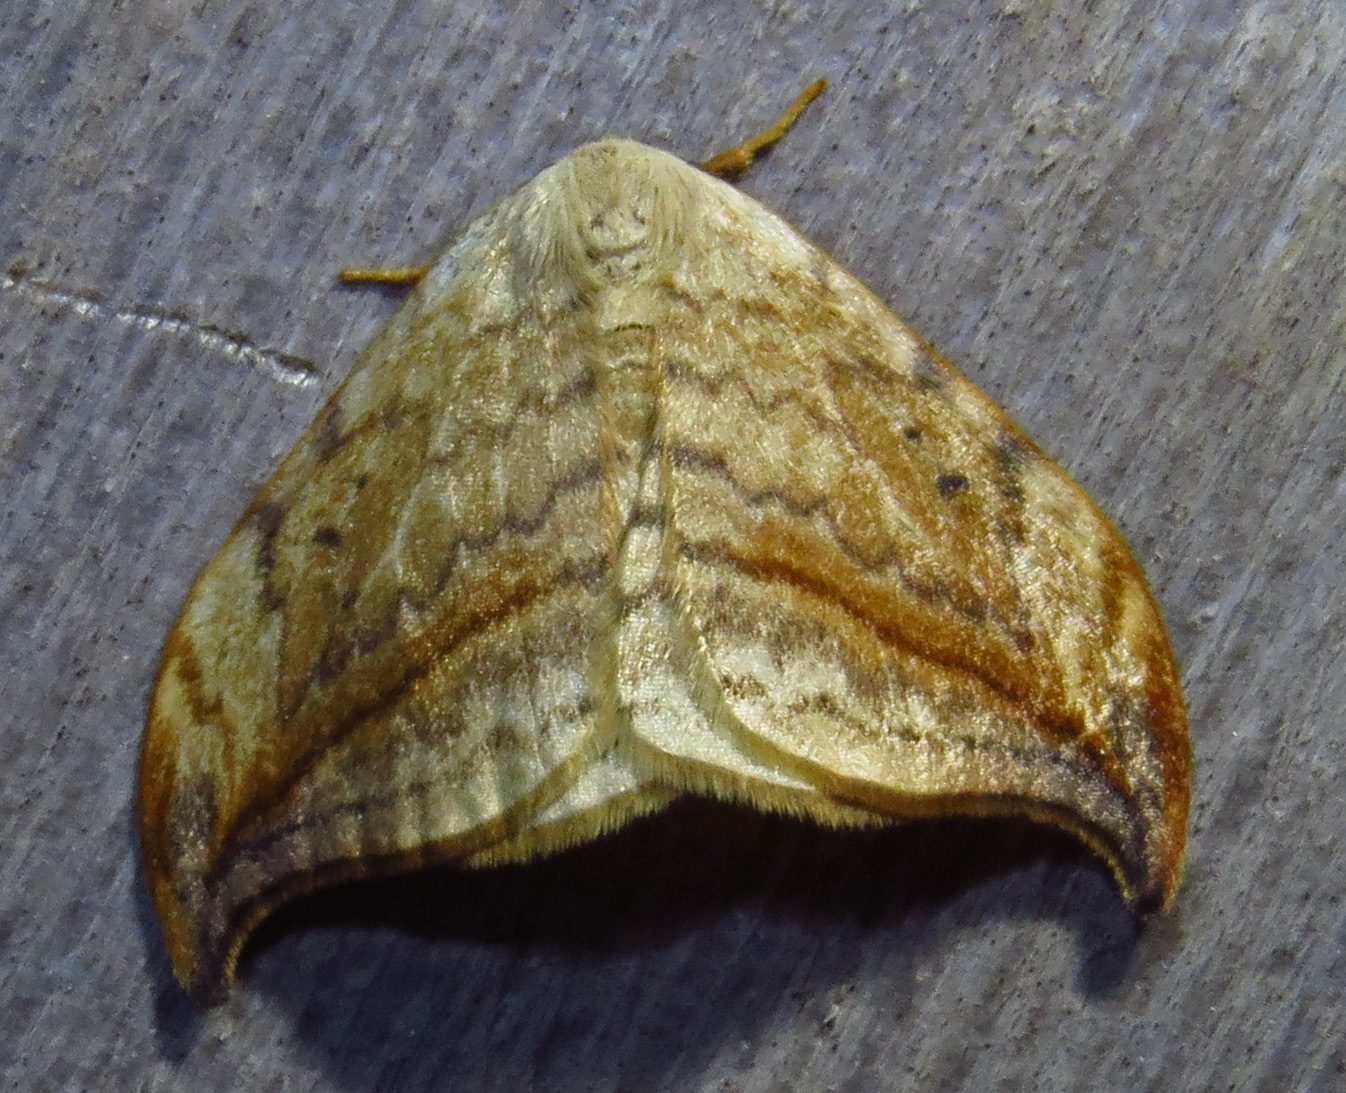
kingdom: Animalia
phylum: Arthropoda
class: Insecta
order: Lepidoptera
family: Drepanidae
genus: Drepana
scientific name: Drepana arcuata
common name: Arched hooktip moth
